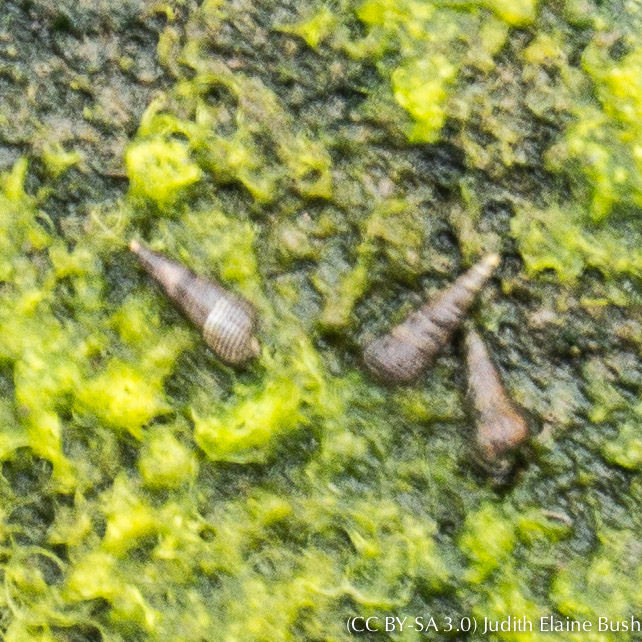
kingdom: Animalia
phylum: Mollusca
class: Gastropoda
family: Batillariidae
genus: Batillaria
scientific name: Batillaria attramentaria
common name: Japanese false cerith
